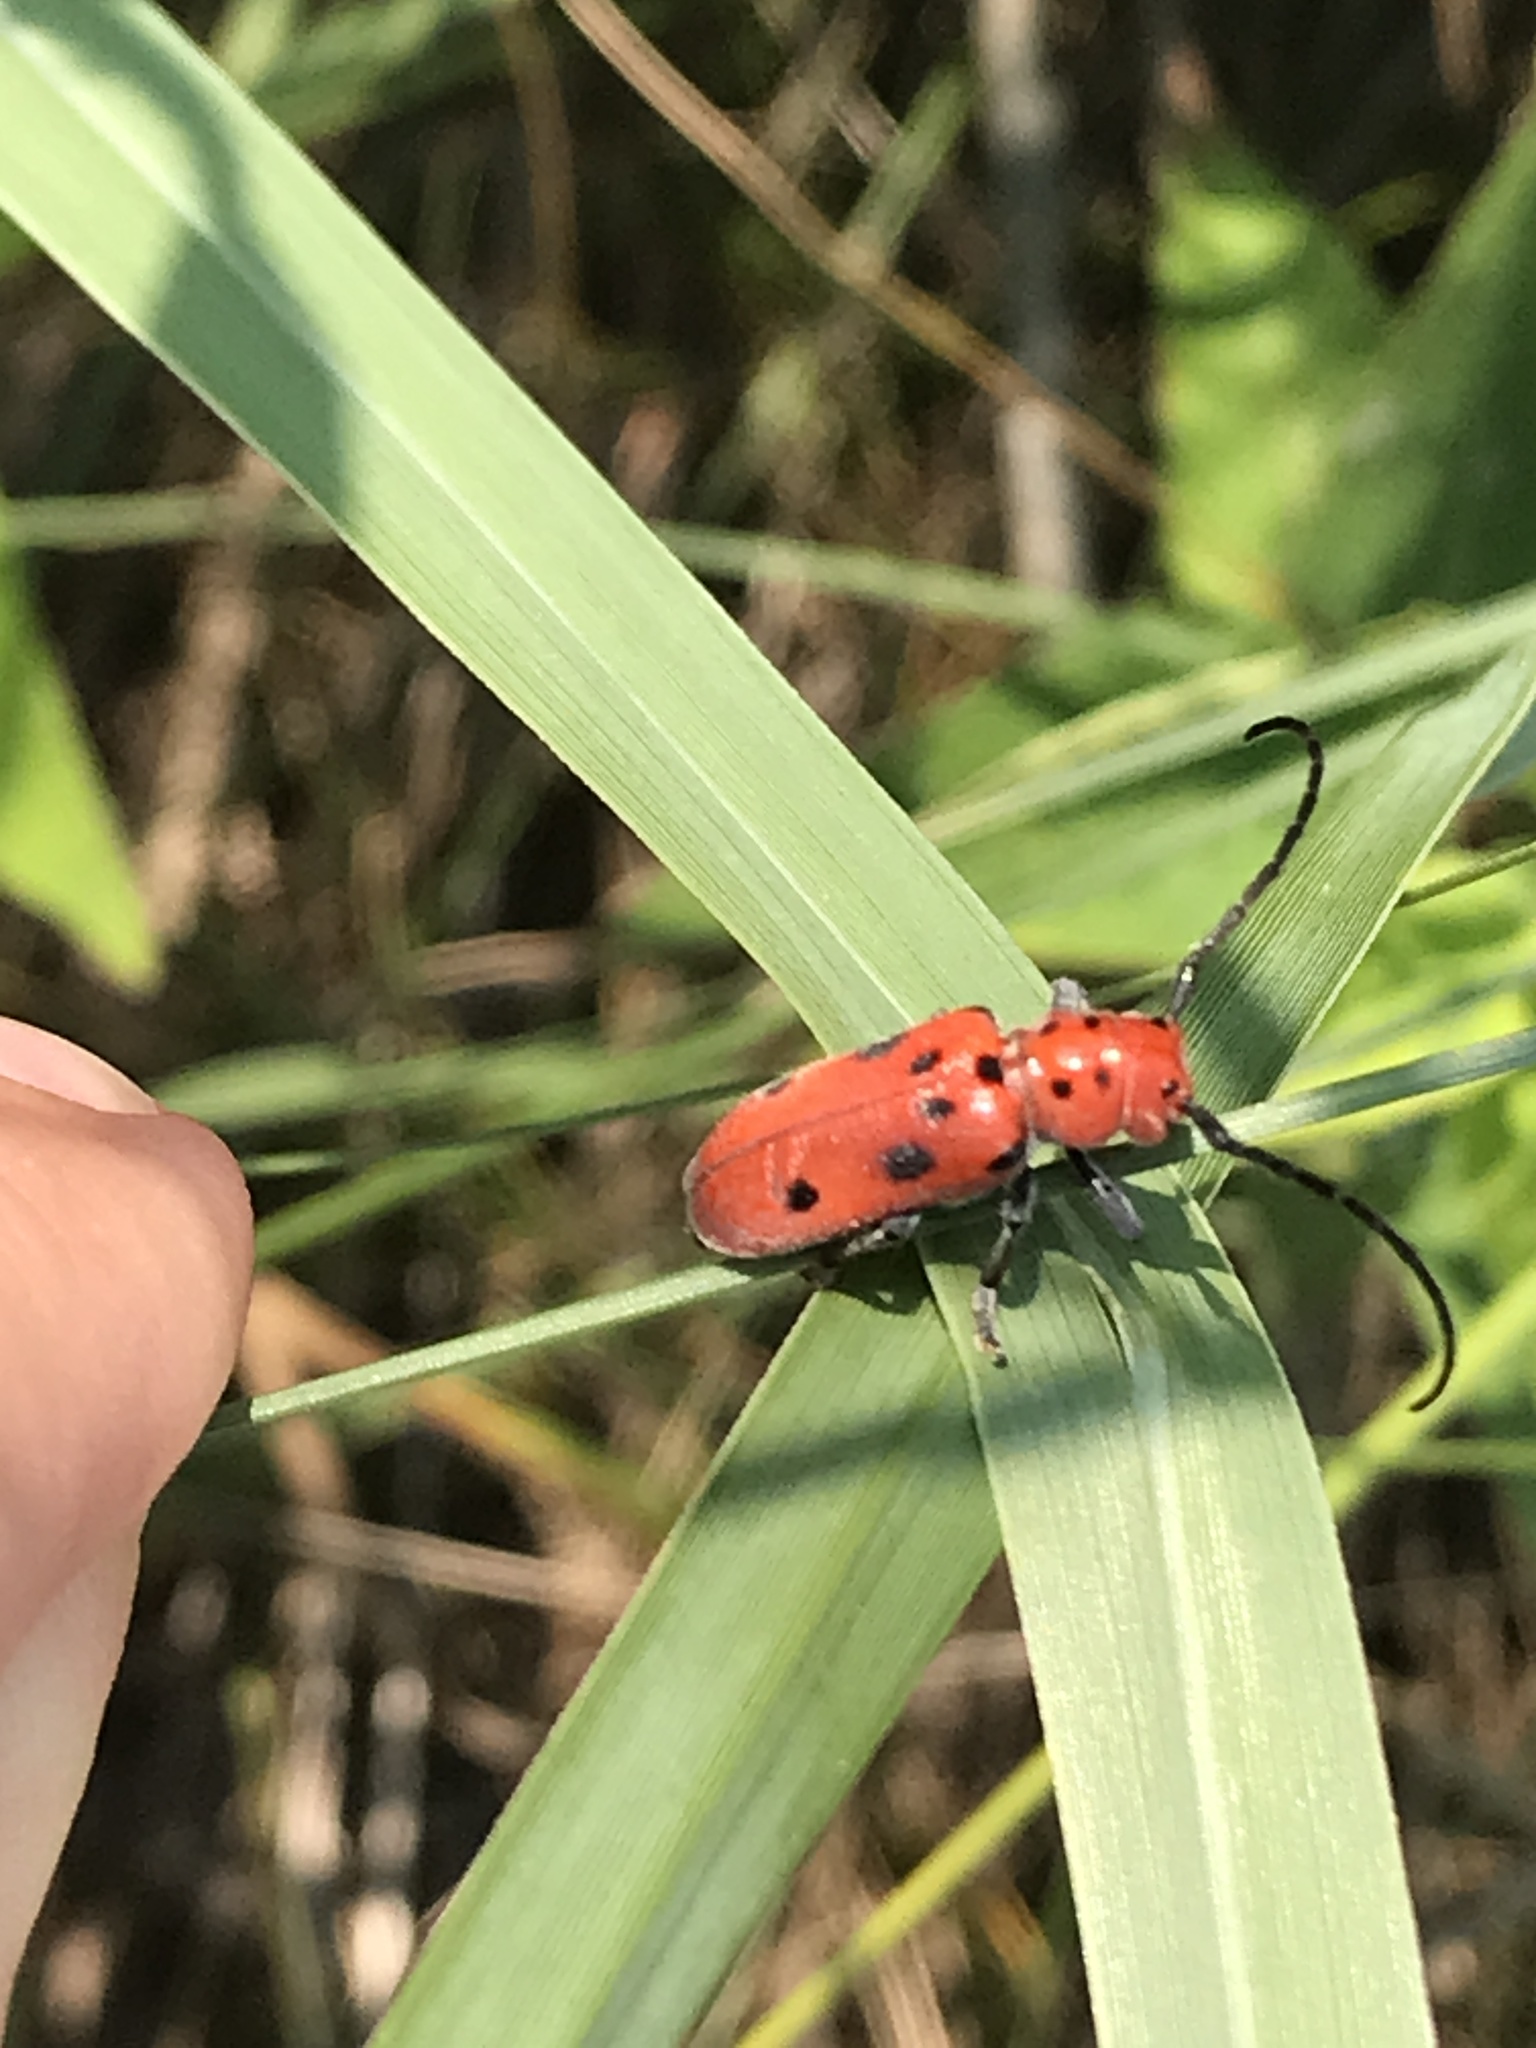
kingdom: Animalia
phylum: Arthropoda
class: Insecta
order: Coleoptera
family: Cerambycidae
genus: Tetraopes
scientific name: Tetraopes tetrophthalmus
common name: Red milkweed beetle
